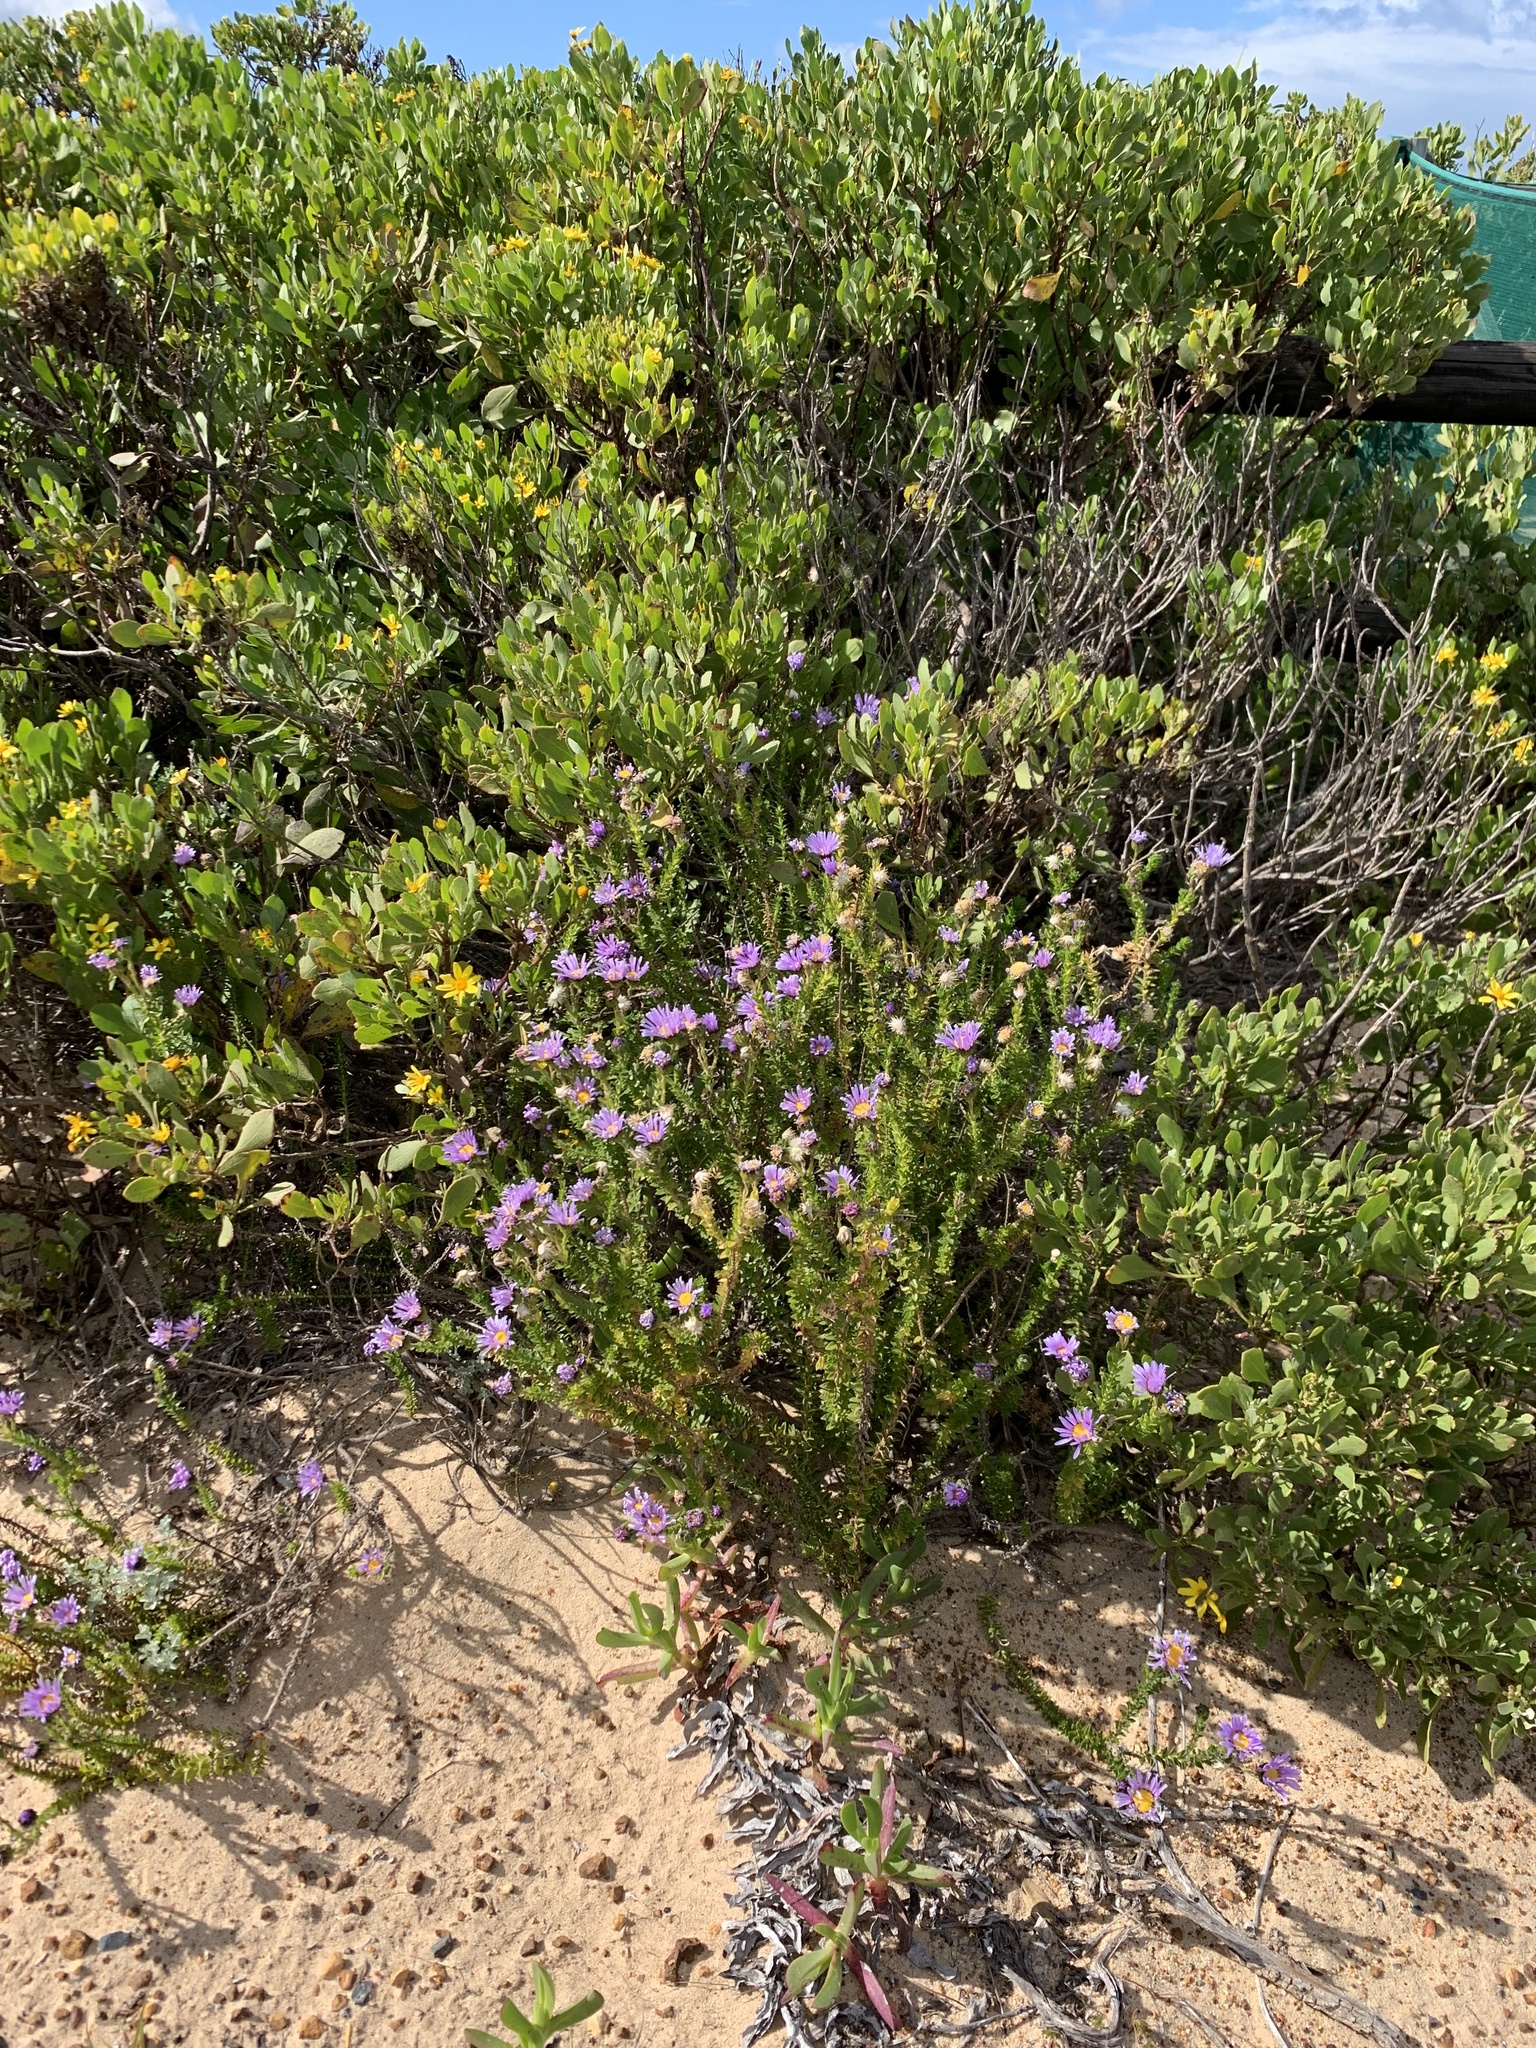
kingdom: Plantae
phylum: Tracheophyta
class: Magnoliopsida
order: Asterales
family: Asteraceae
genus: Felicia
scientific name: Felicia echinata
